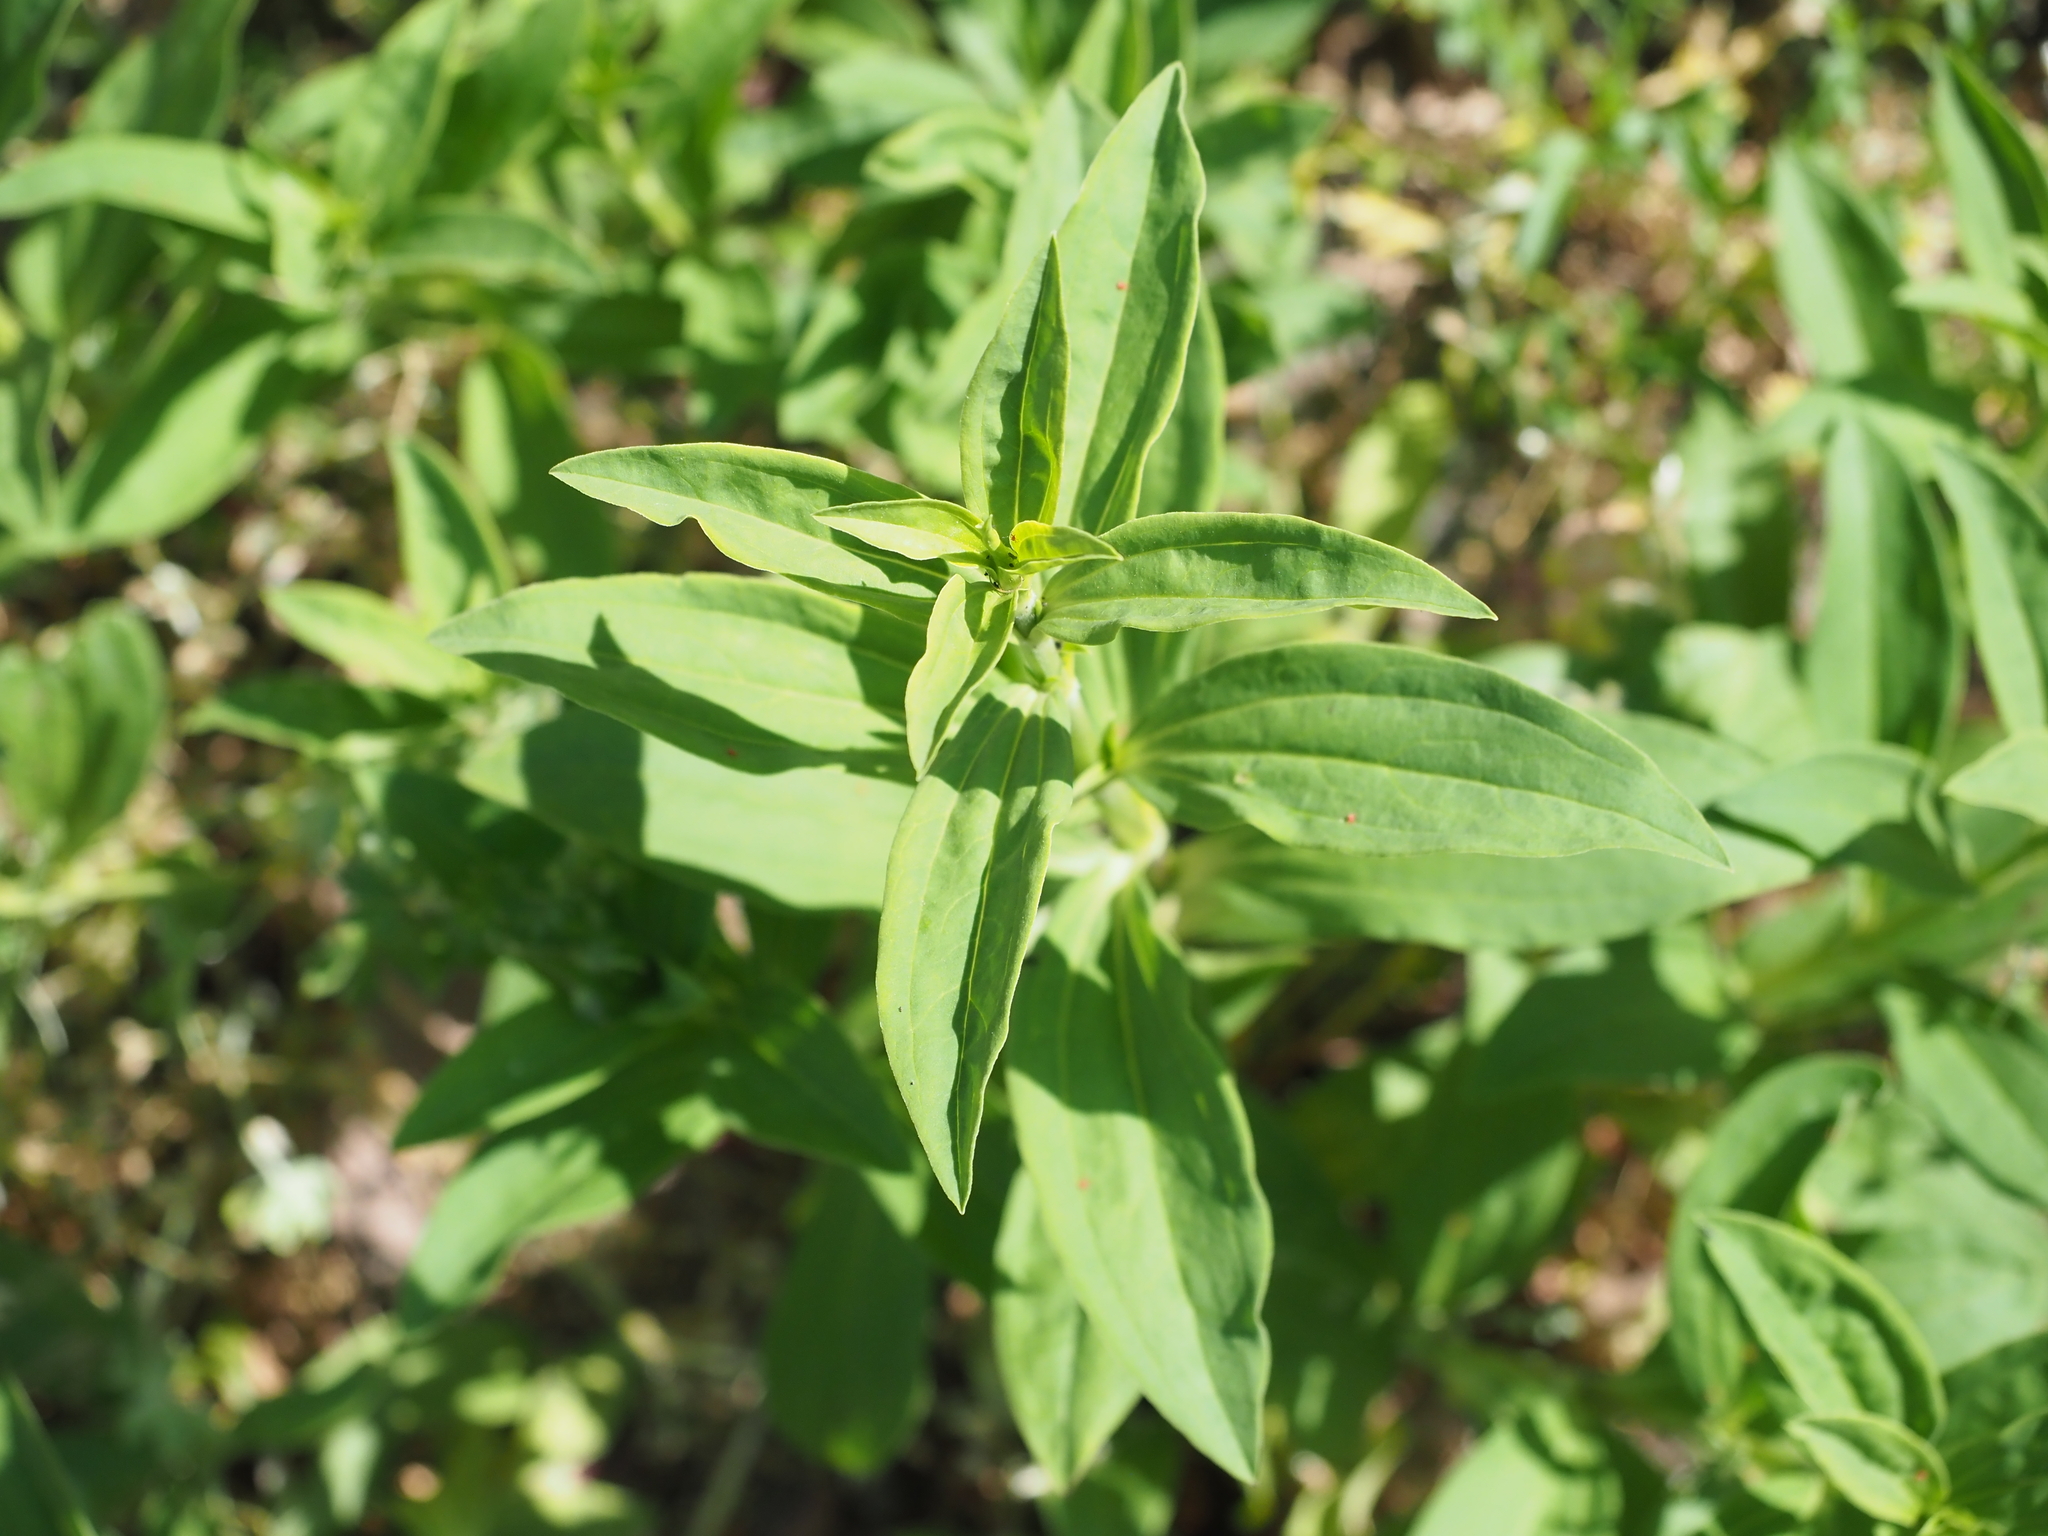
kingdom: Plantae
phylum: Tracheophyta
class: Magnoliopsida
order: Caryophyllales
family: Caryophyllaceae
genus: Saponaria
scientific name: Saponaria officinalis
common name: Soapwort
